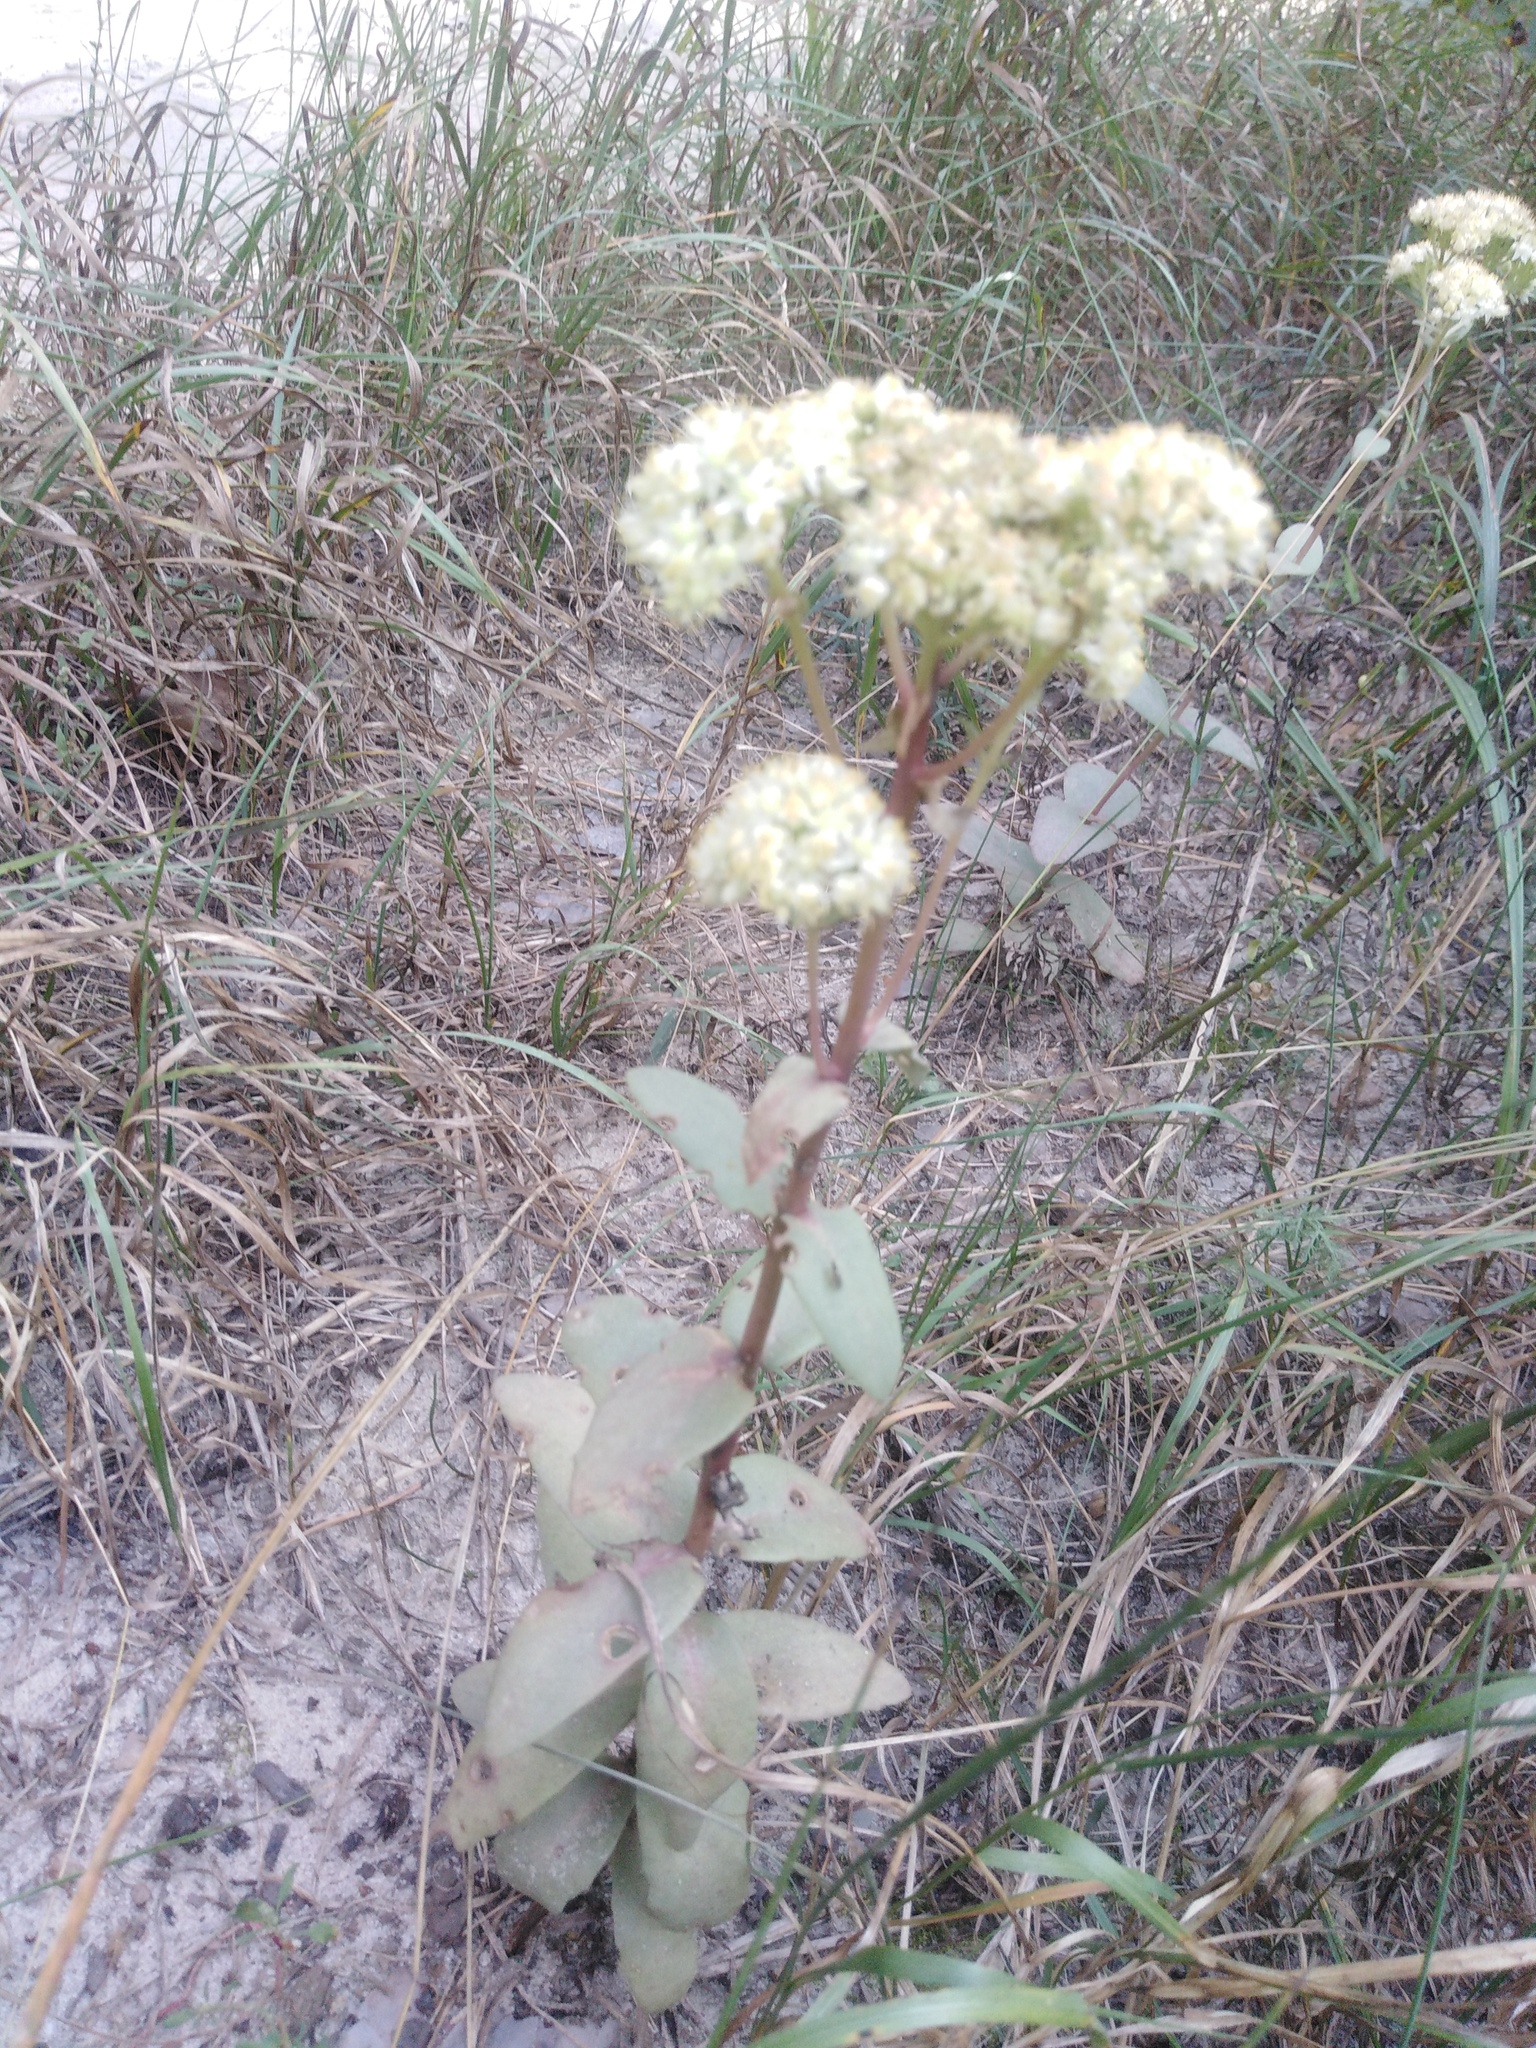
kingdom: Plantae
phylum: Tracheophyta
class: Magnoliopsida
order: Saxifragales
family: Crassulaceae
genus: Hylotelephium
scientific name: Hylotelephium maximum
